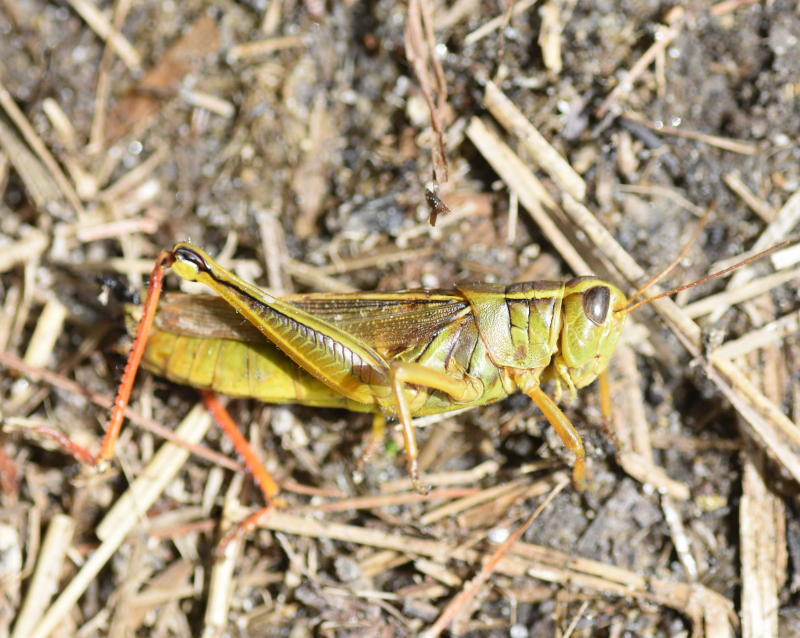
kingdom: Animalia
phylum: Arthropoda
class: Insecta
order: Orthoptera
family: Acrididae
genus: Melanoplus
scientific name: Melanoplus bivittatus
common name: Two-striped grasshopper
